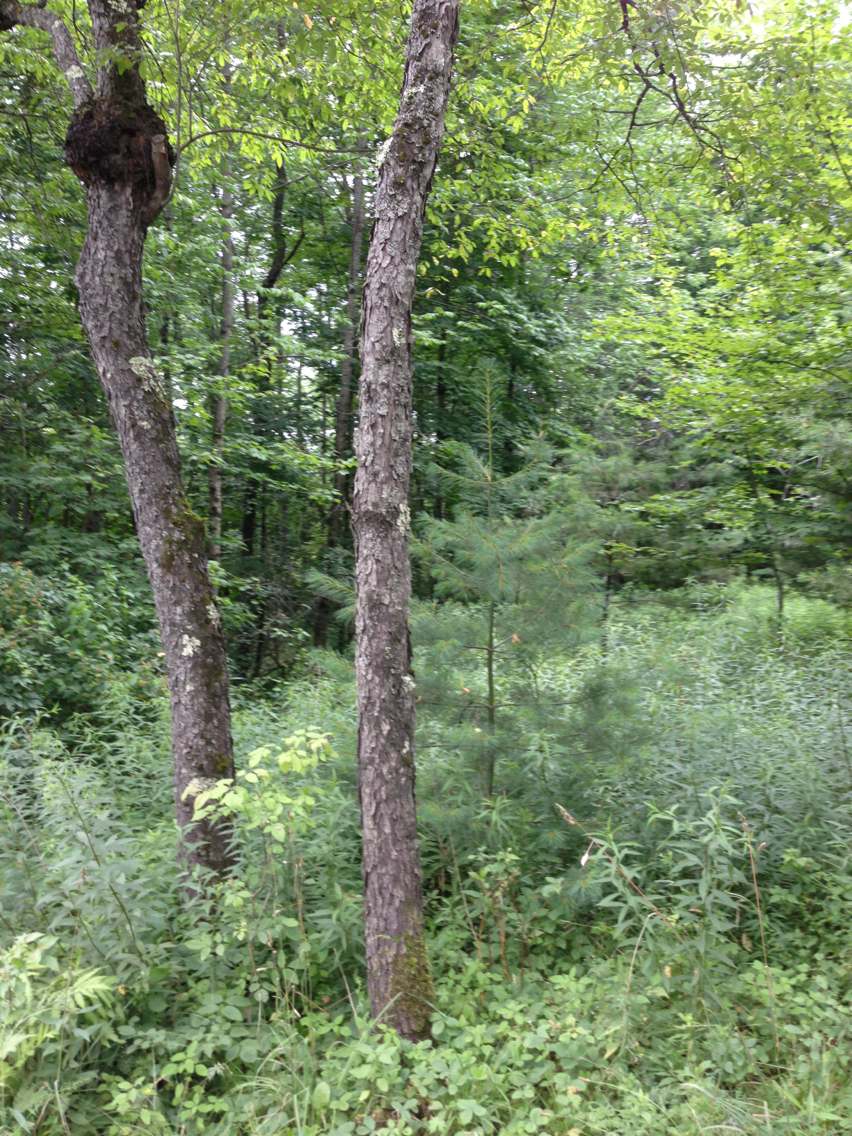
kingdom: Plantae
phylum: Tracheophyta
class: Magnoliopsida
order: Rosales
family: Rosaceae
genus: Prunus
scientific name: Prunus serotina
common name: Black cherry
